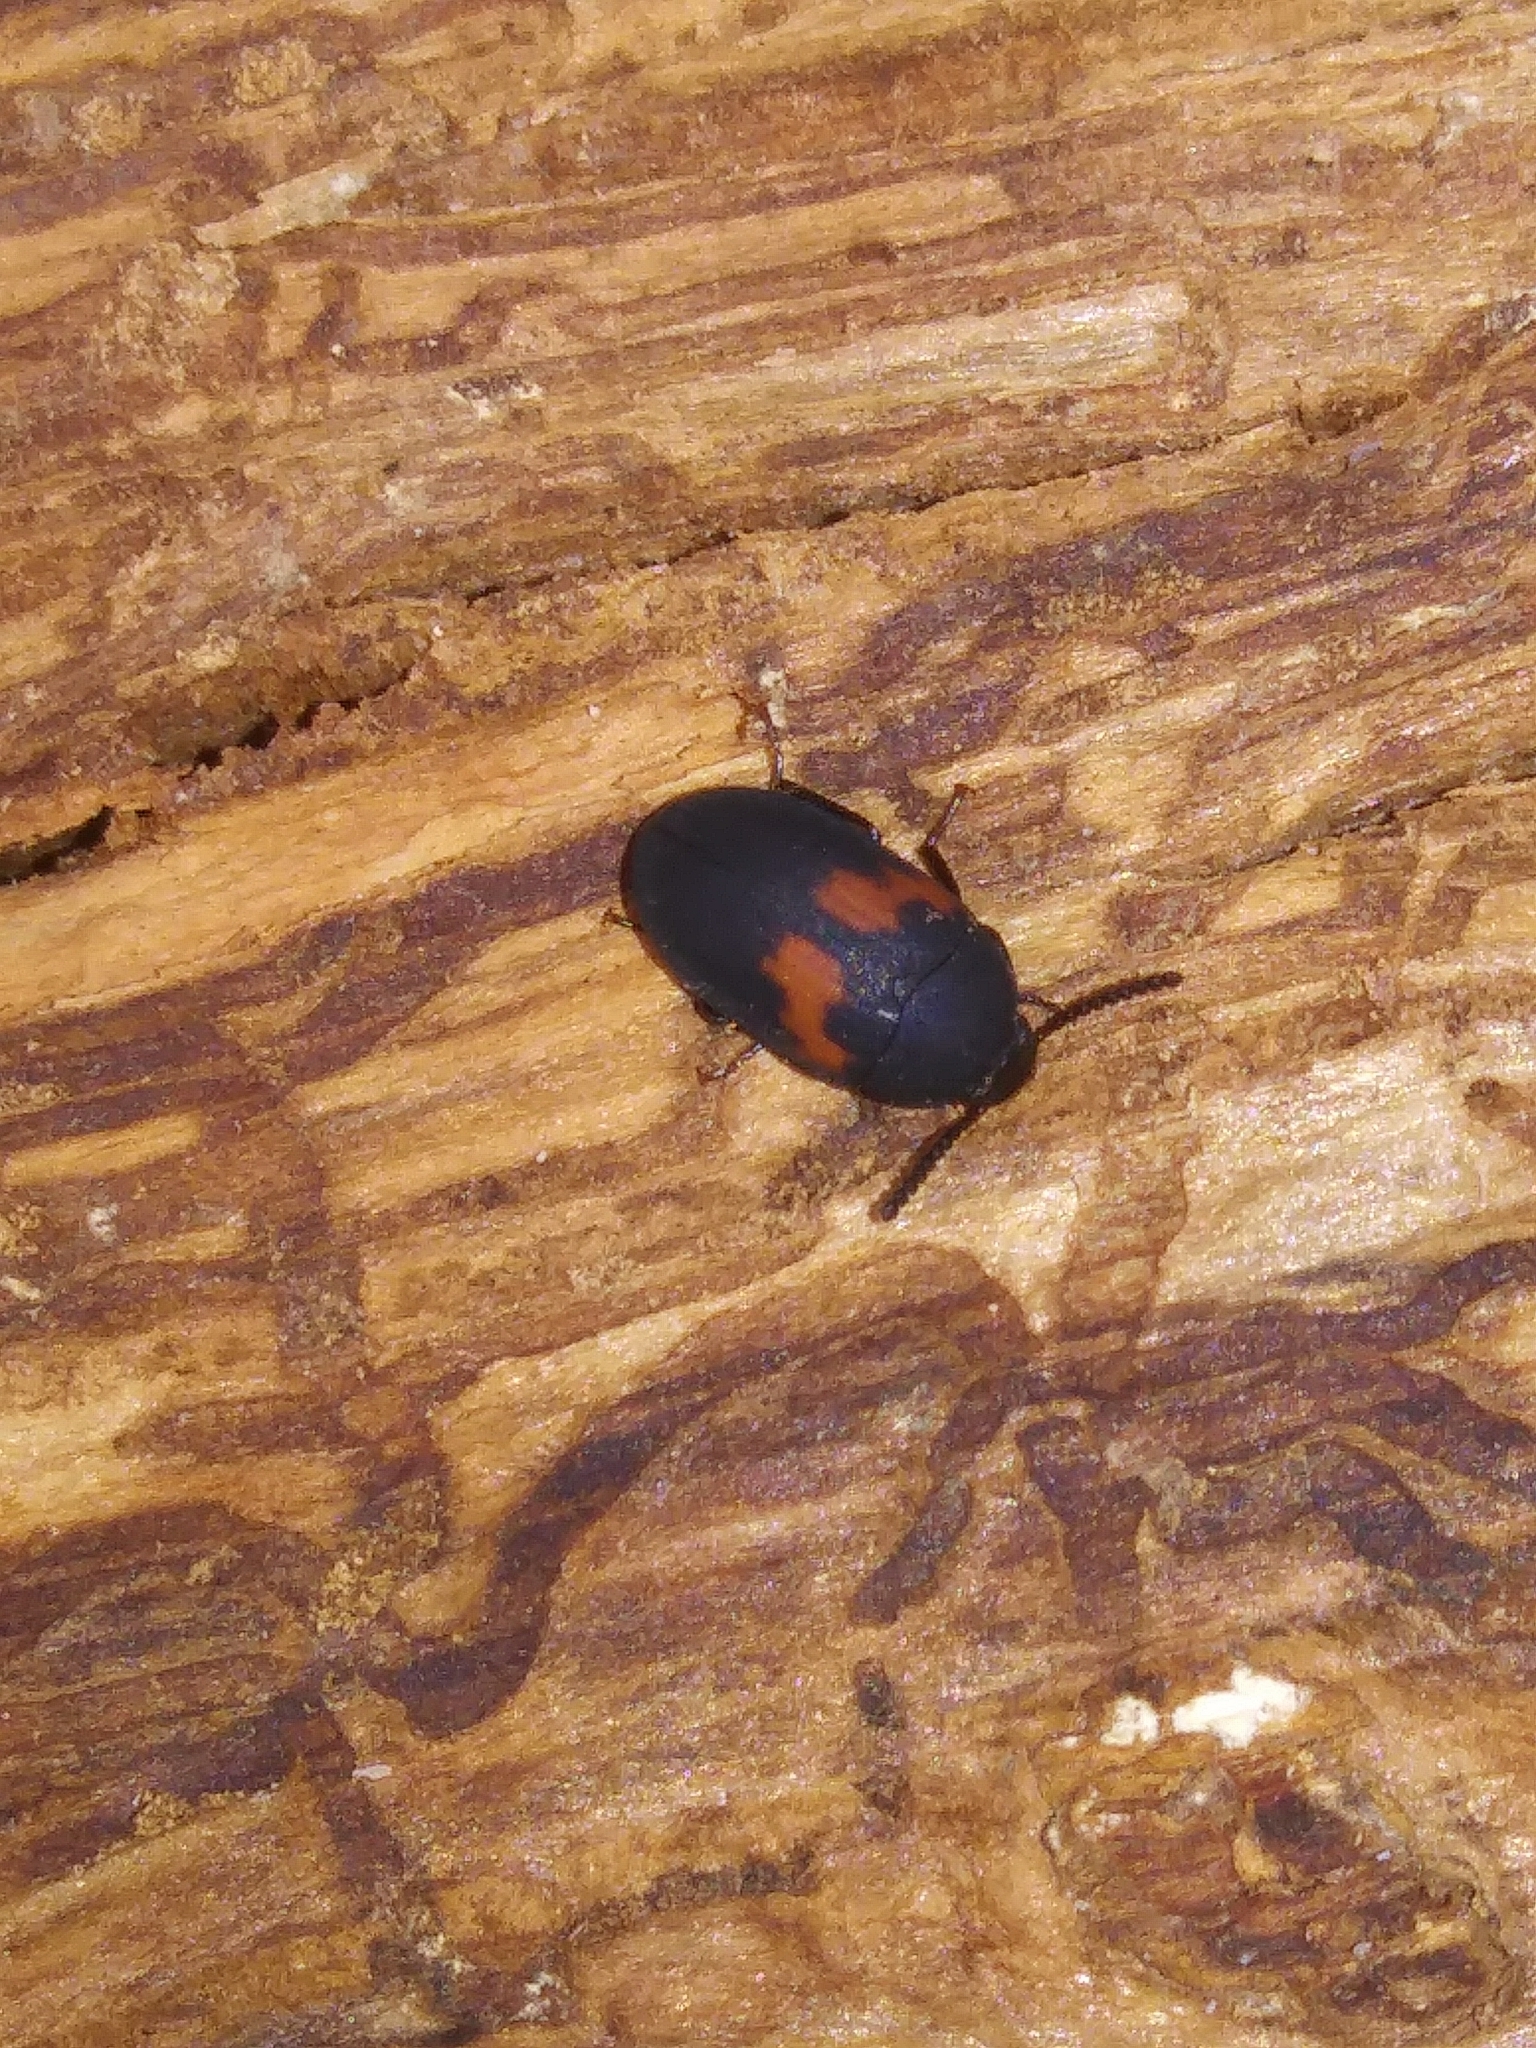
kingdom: Animalia
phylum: Arthropoda
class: Insecta
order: Coleoptera
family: Tenebrionidae
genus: Platydema
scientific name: Platydema elliptica
